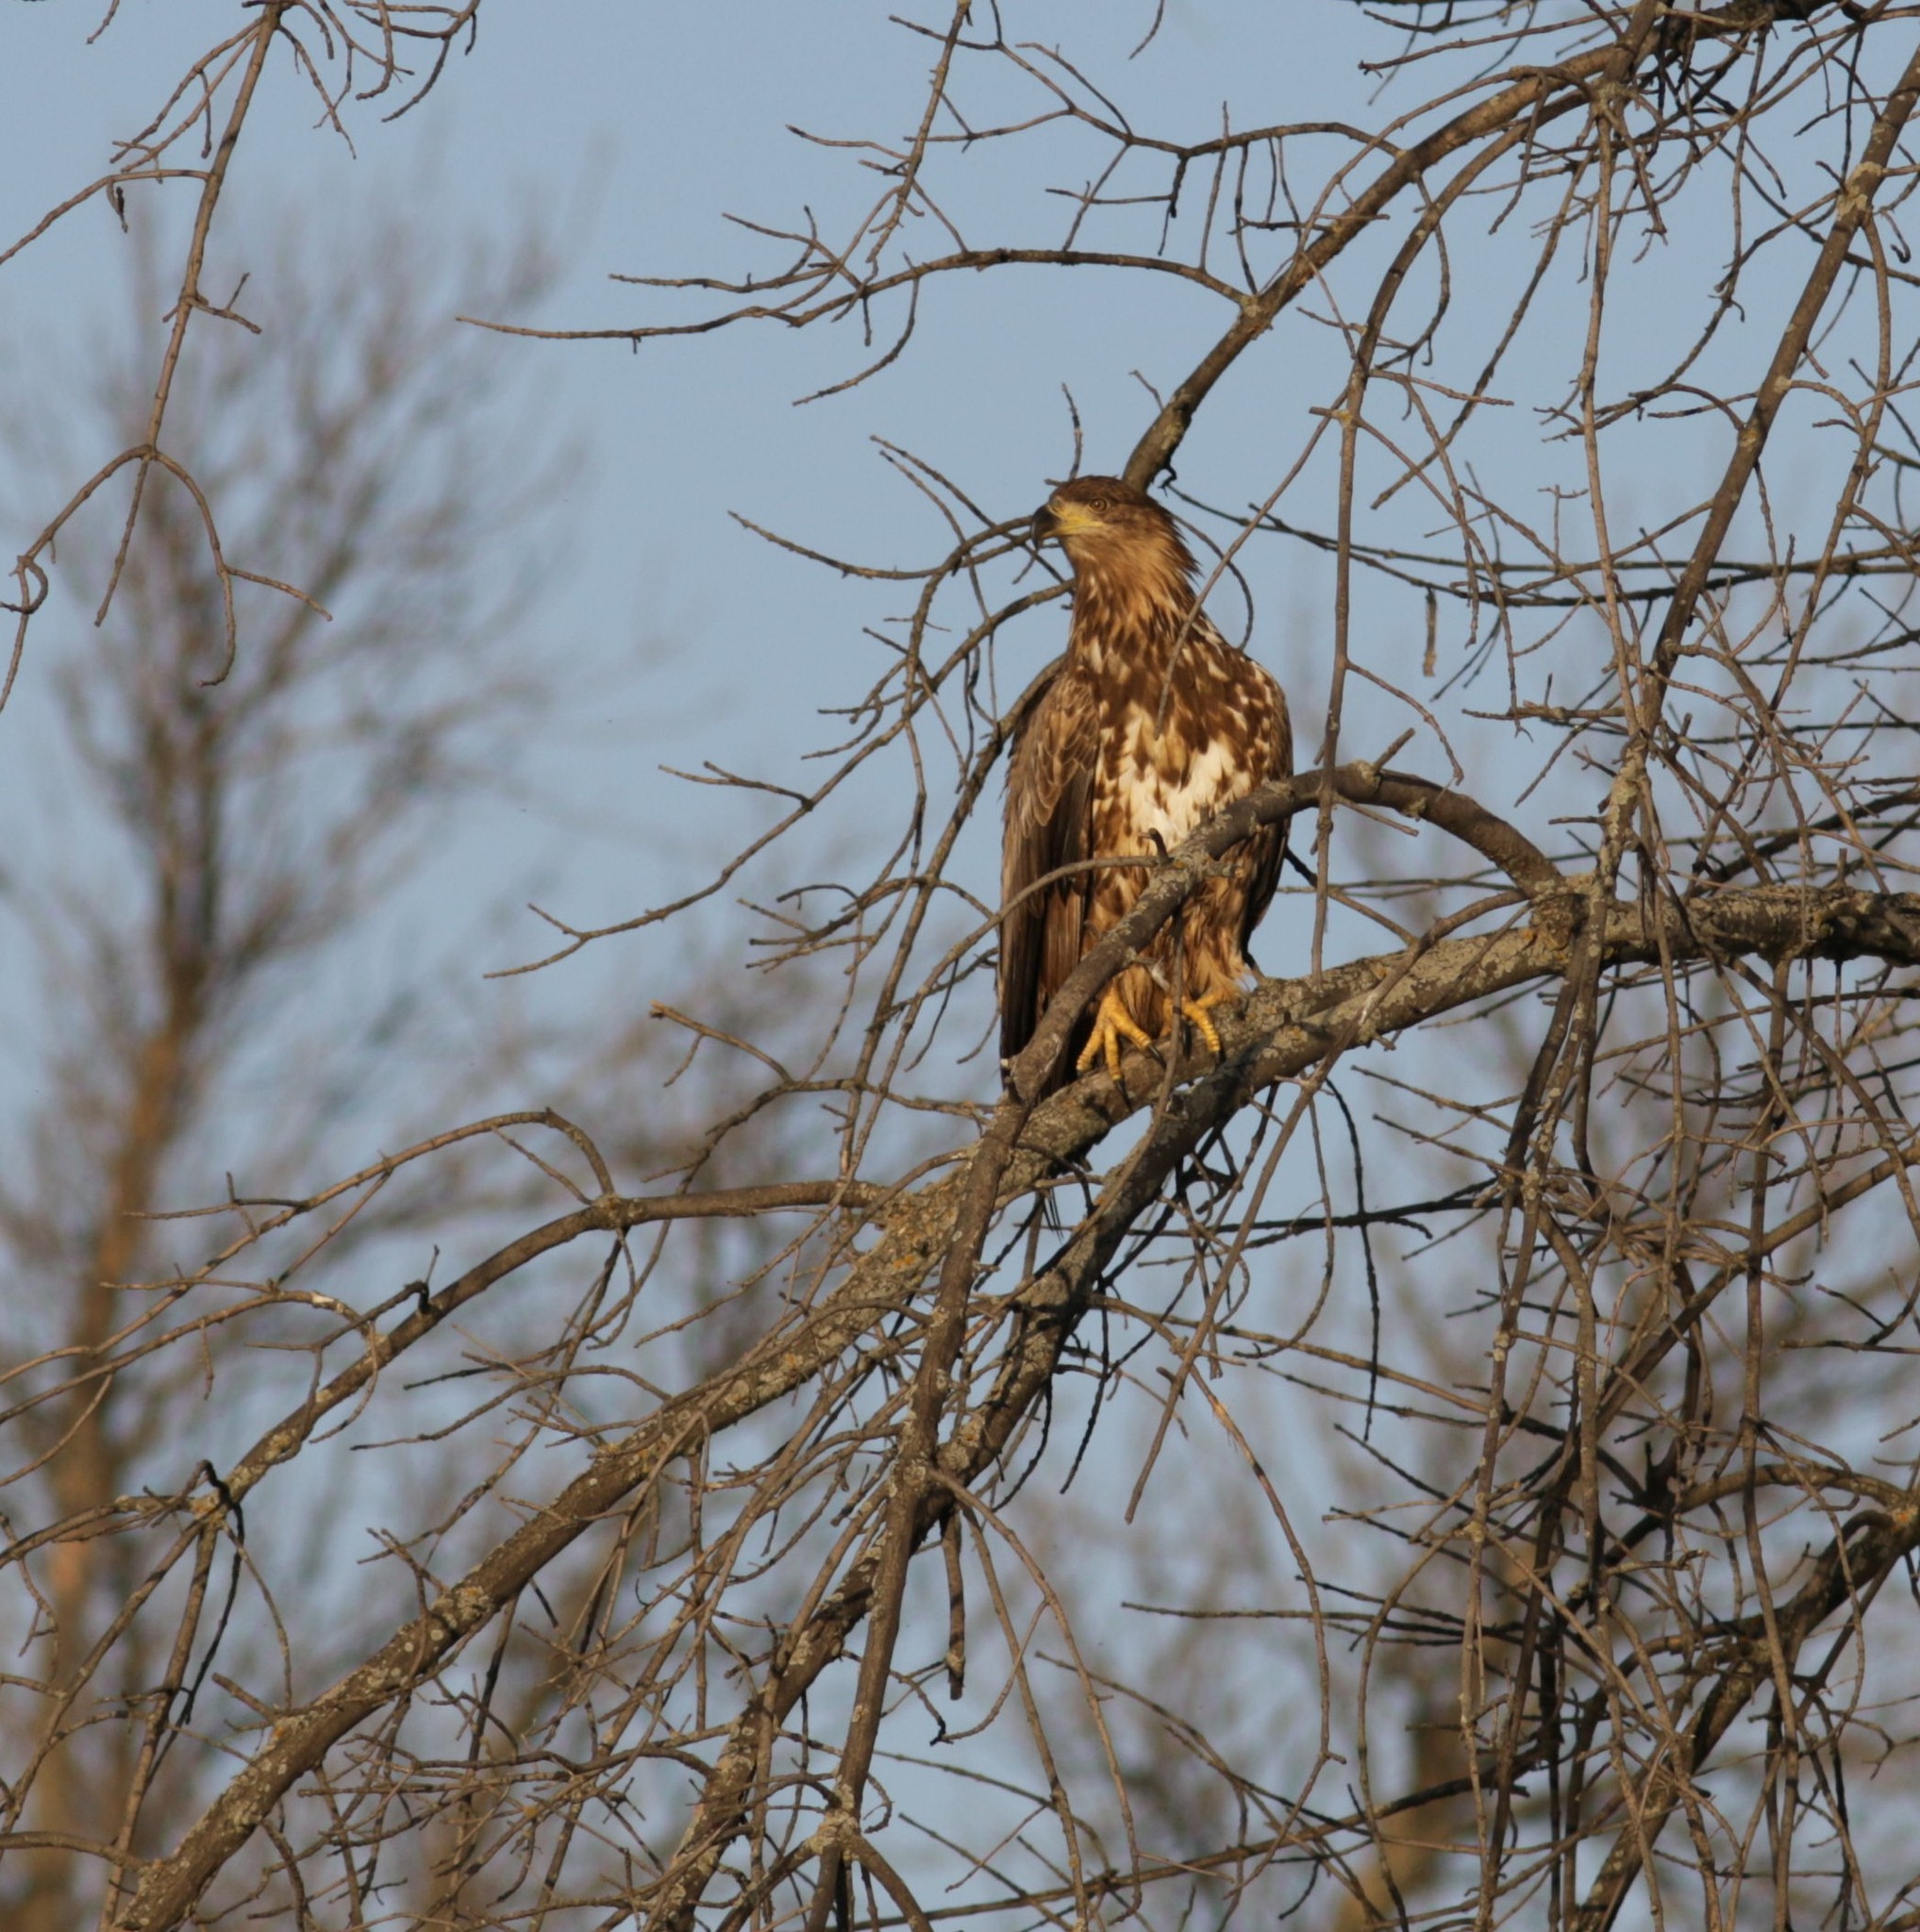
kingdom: Animalia
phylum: Chordata
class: Aves
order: Accipitriformes
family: Accipitridae
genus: Haliaeetus
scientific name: Haliaeetus albicilla
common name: White-tailed eagle
